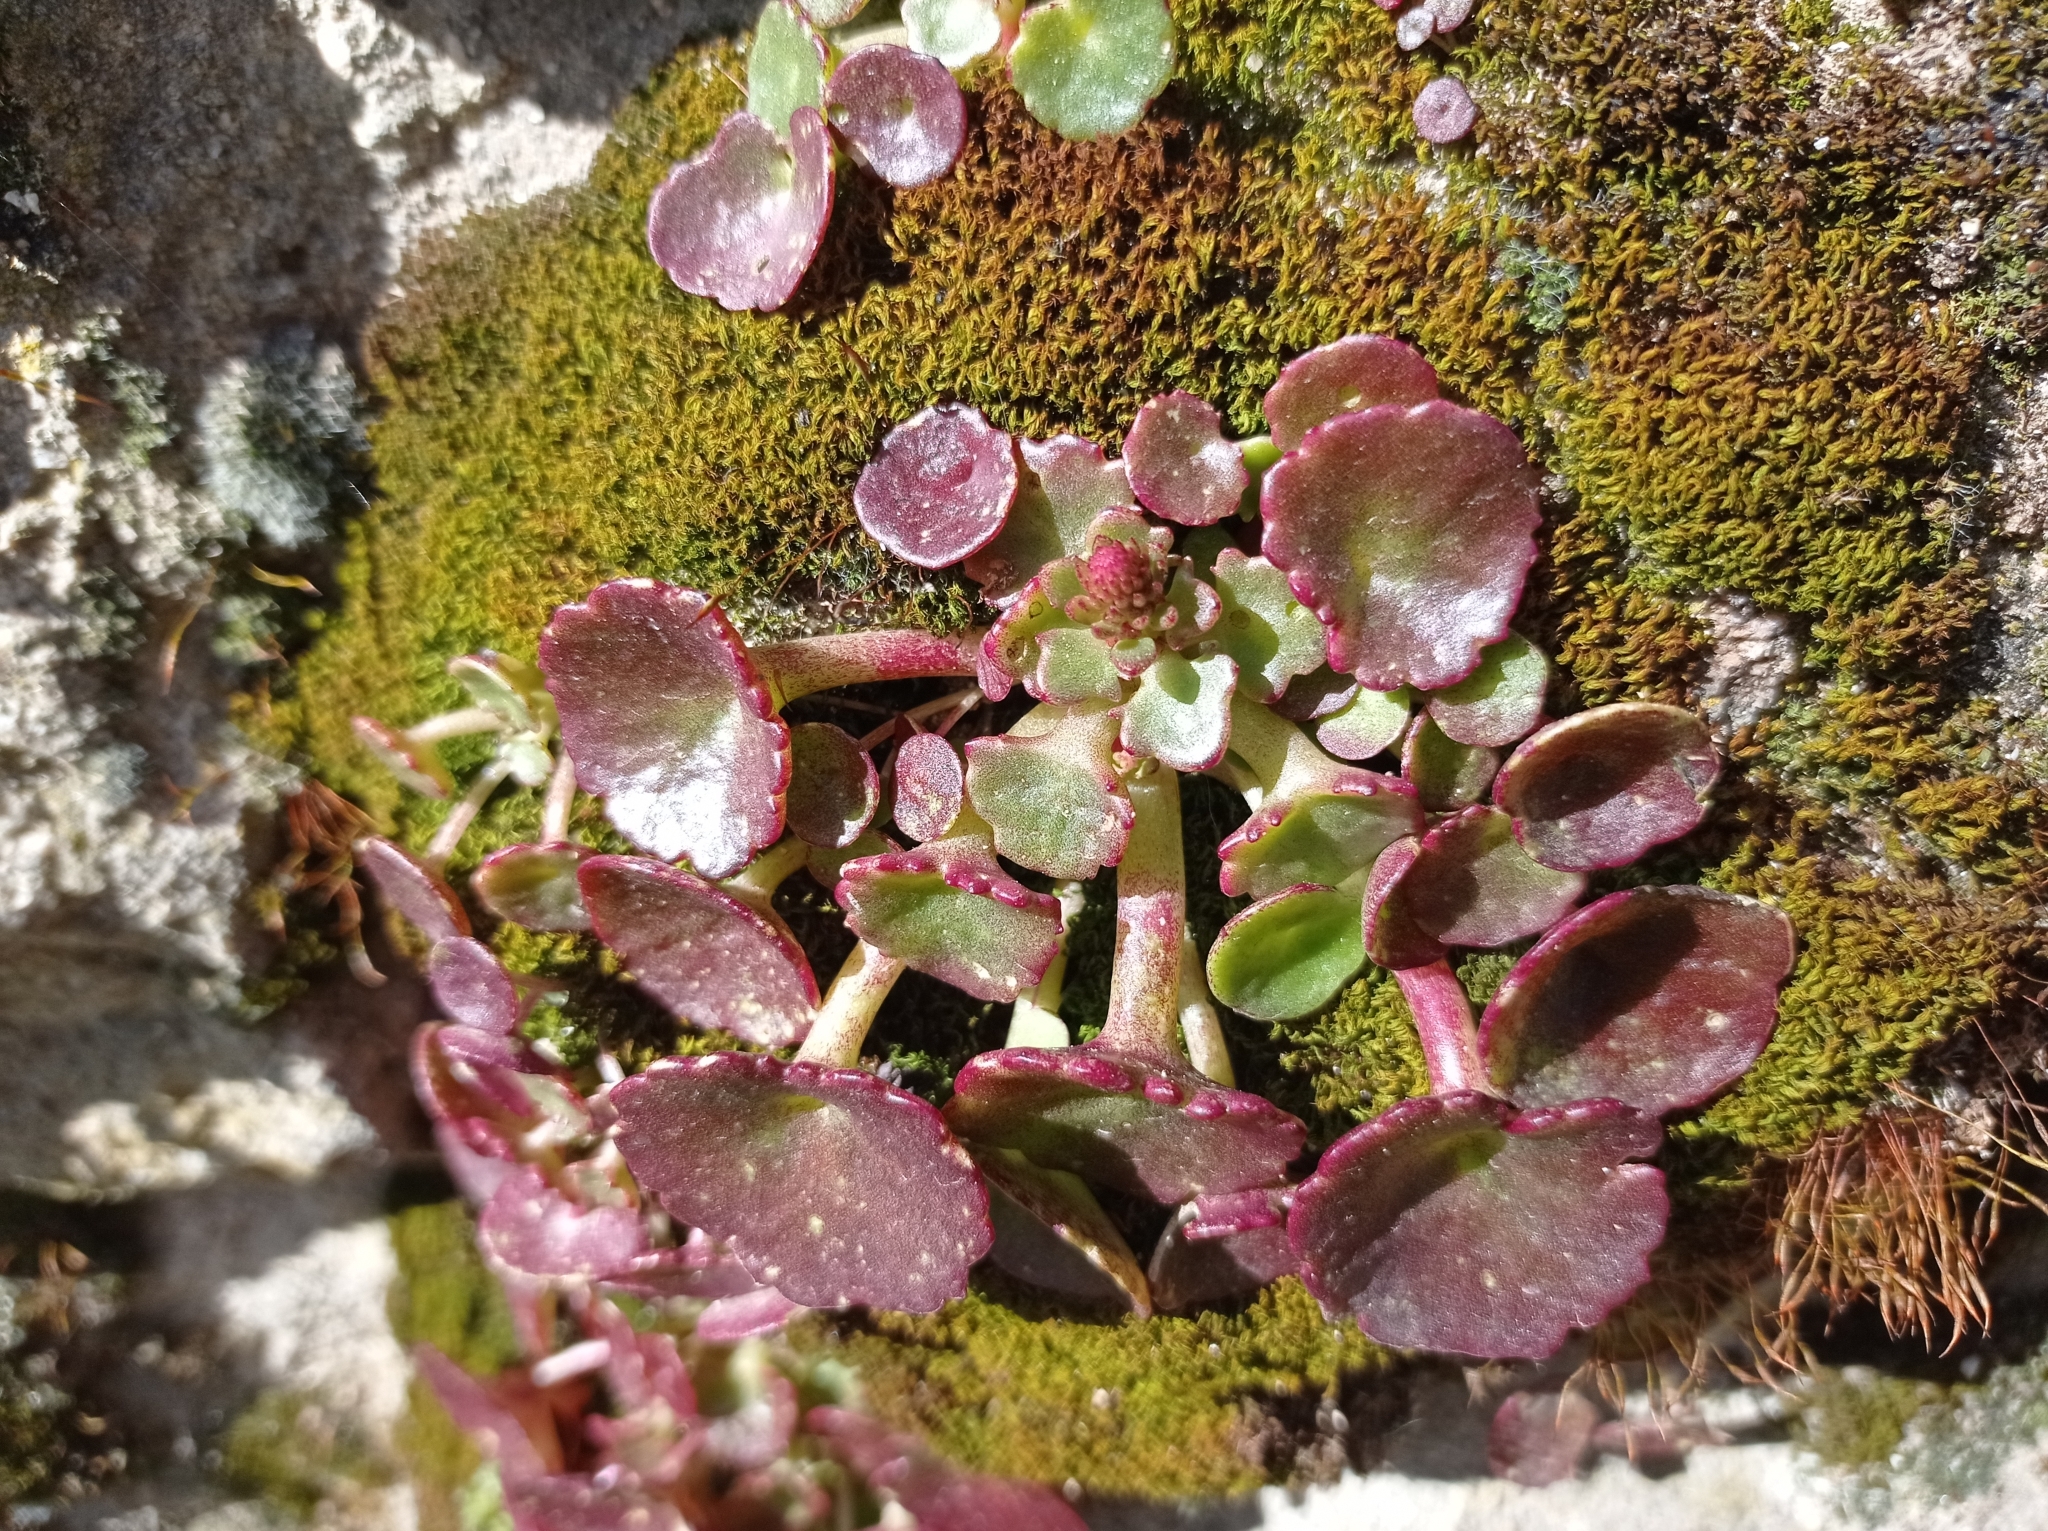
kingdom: Plantae
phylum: Tracheophyta
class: Magnoliopsida
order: Saxifragales
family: Crassulaceae
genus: Umbilicus
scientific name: Umbilicus rupestris
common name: Navelwort
